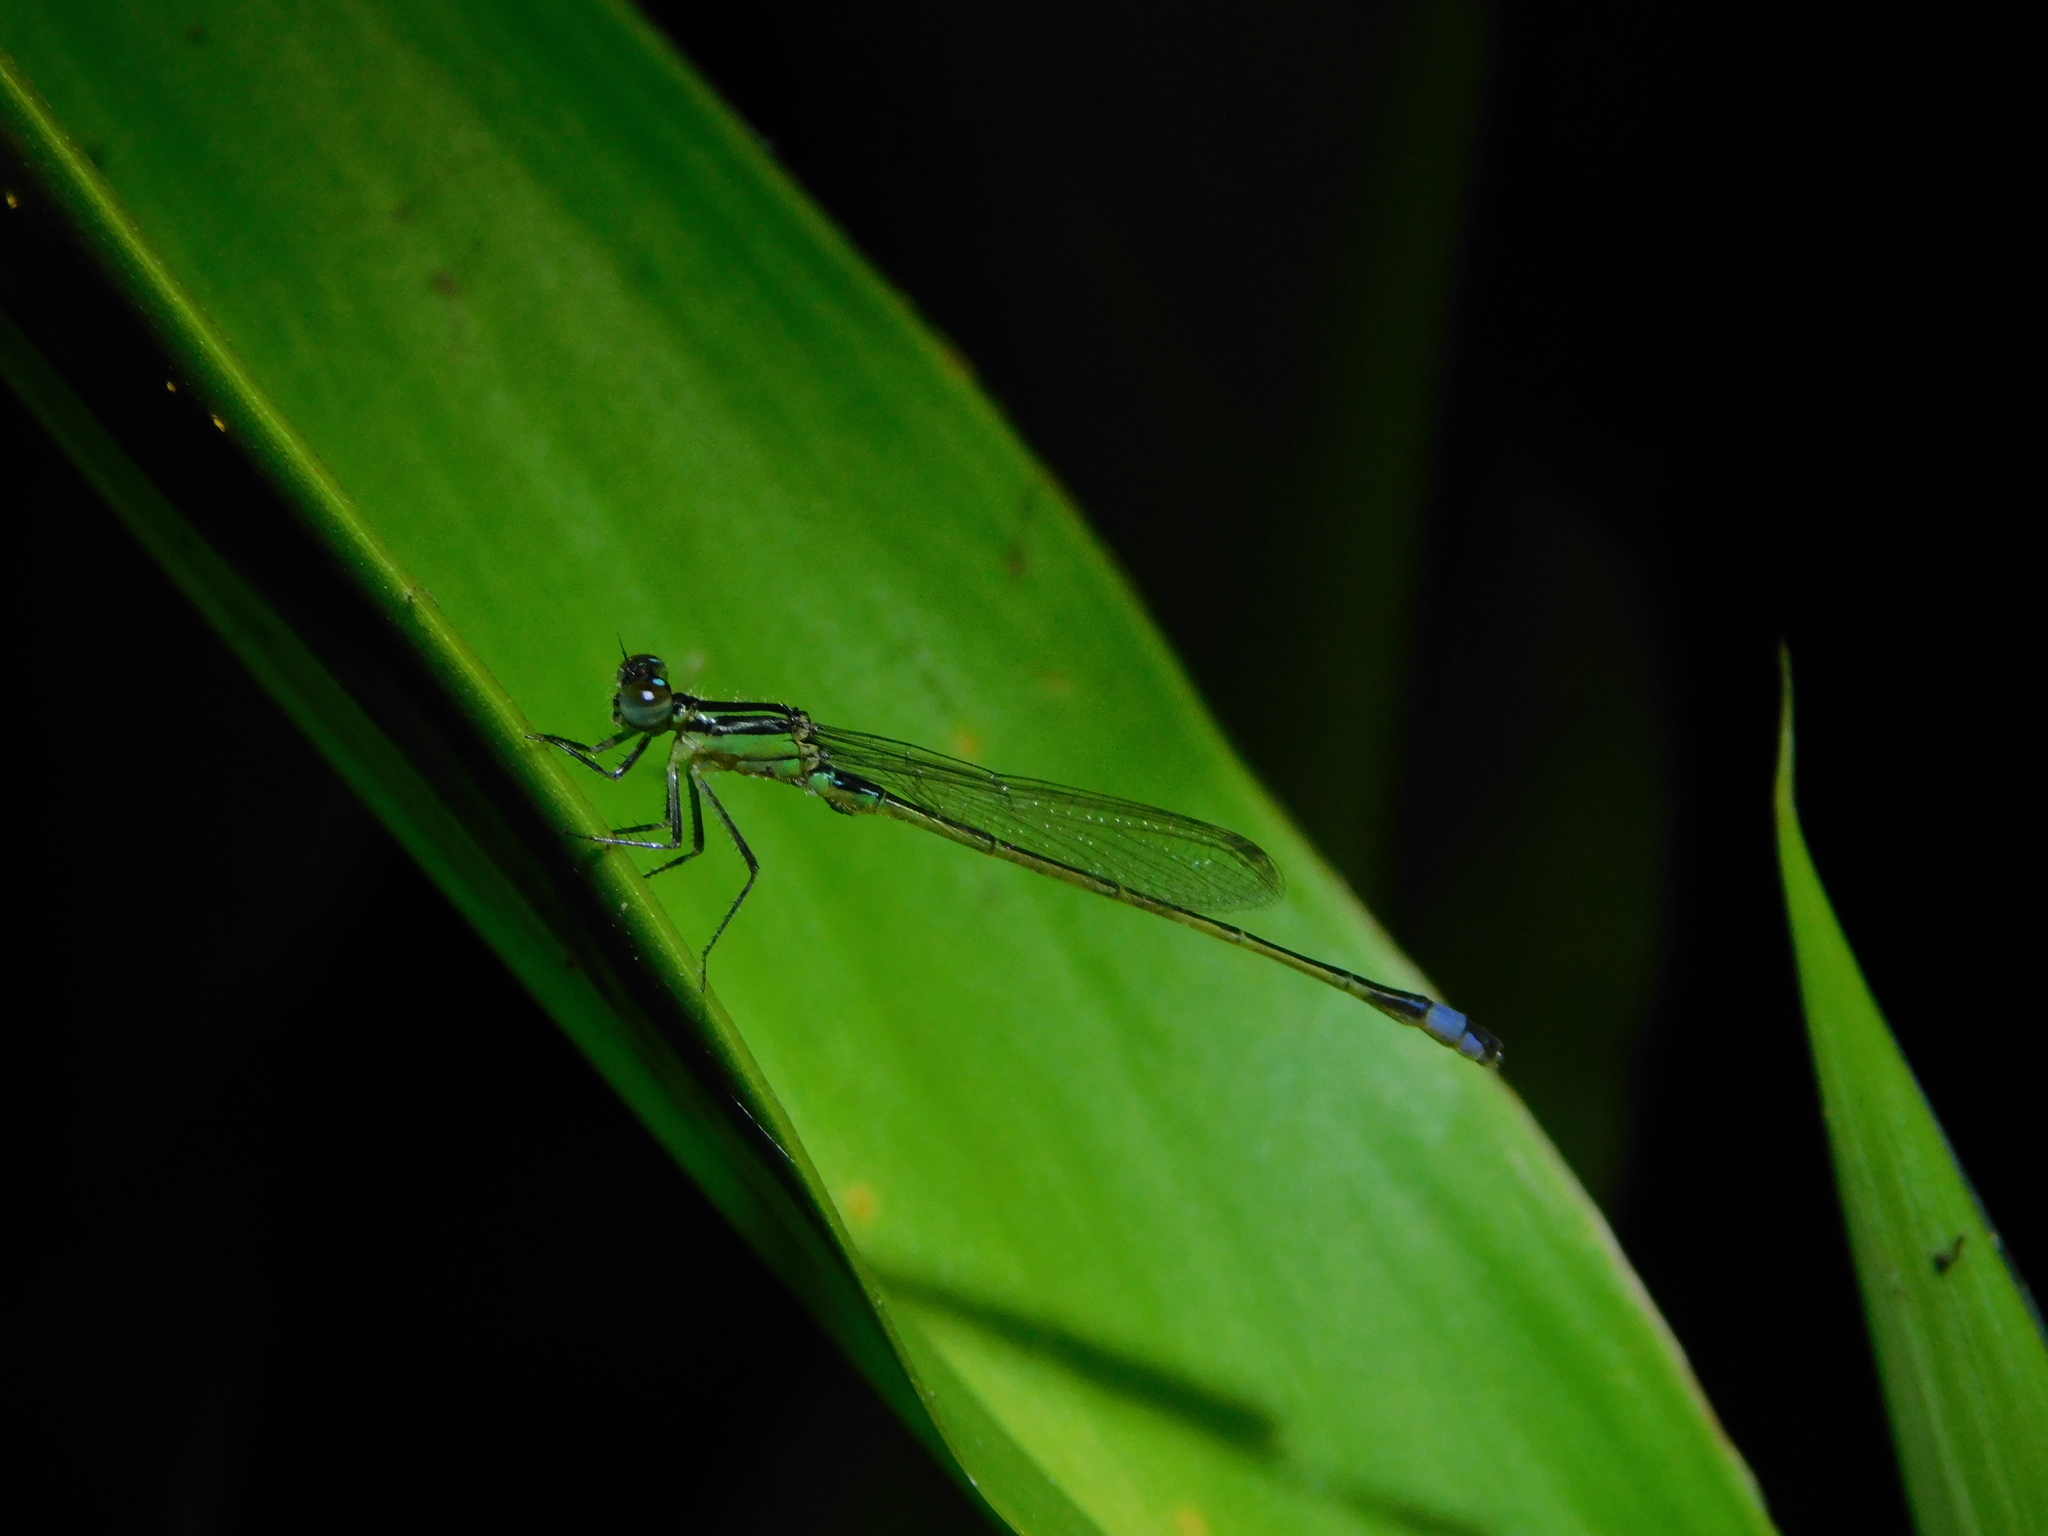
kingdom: Animalia
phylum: Arthropoda
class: Insecta
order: Odonata
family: Coenagrionidae
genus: Ischnura
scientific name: Ischnura ramburii
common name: Rambur's forktail
